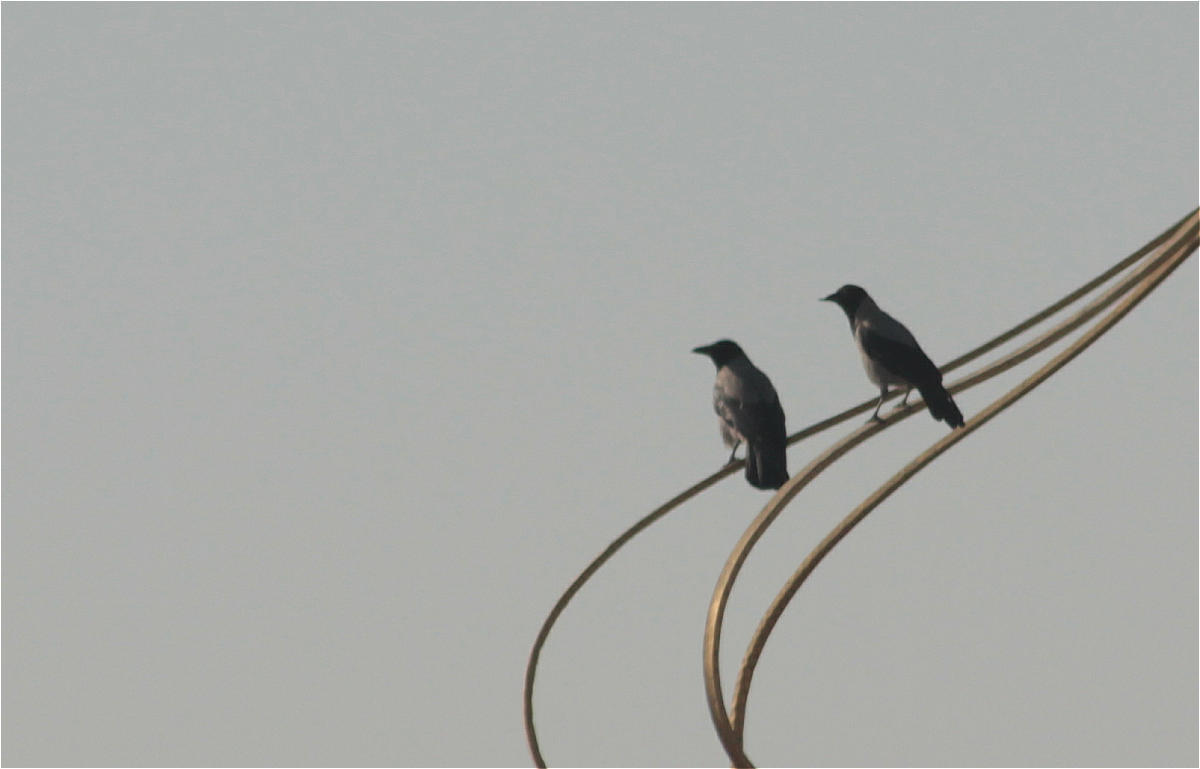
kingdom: Animalia
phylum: Chordata
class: Aves
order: Passeriformes
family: Corvidae
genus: Corvus
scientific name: Corvus cornix
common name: Hooded crow
